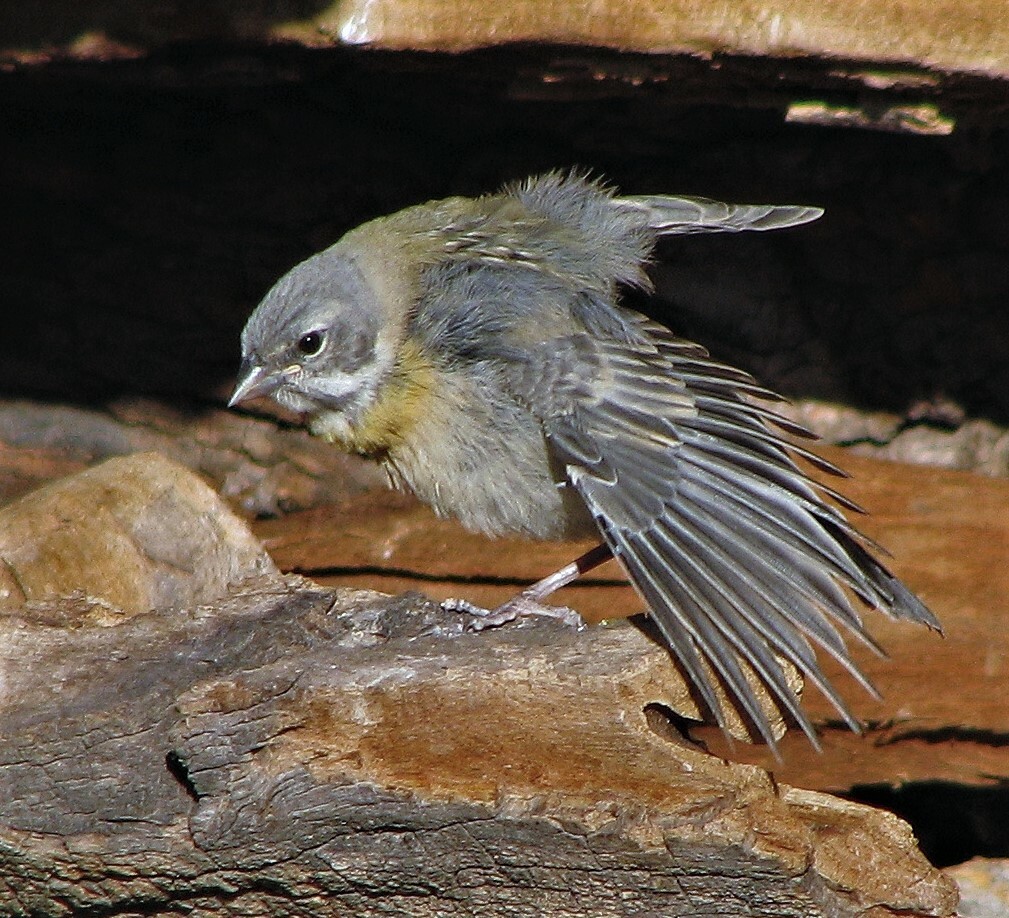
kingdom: Animalia
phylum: Chordata
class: Aves
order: Passeriformes
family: Thraupidae
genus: Phrygilus
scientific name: Phrygilus gayi
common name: Grey-hooded sierra finch
